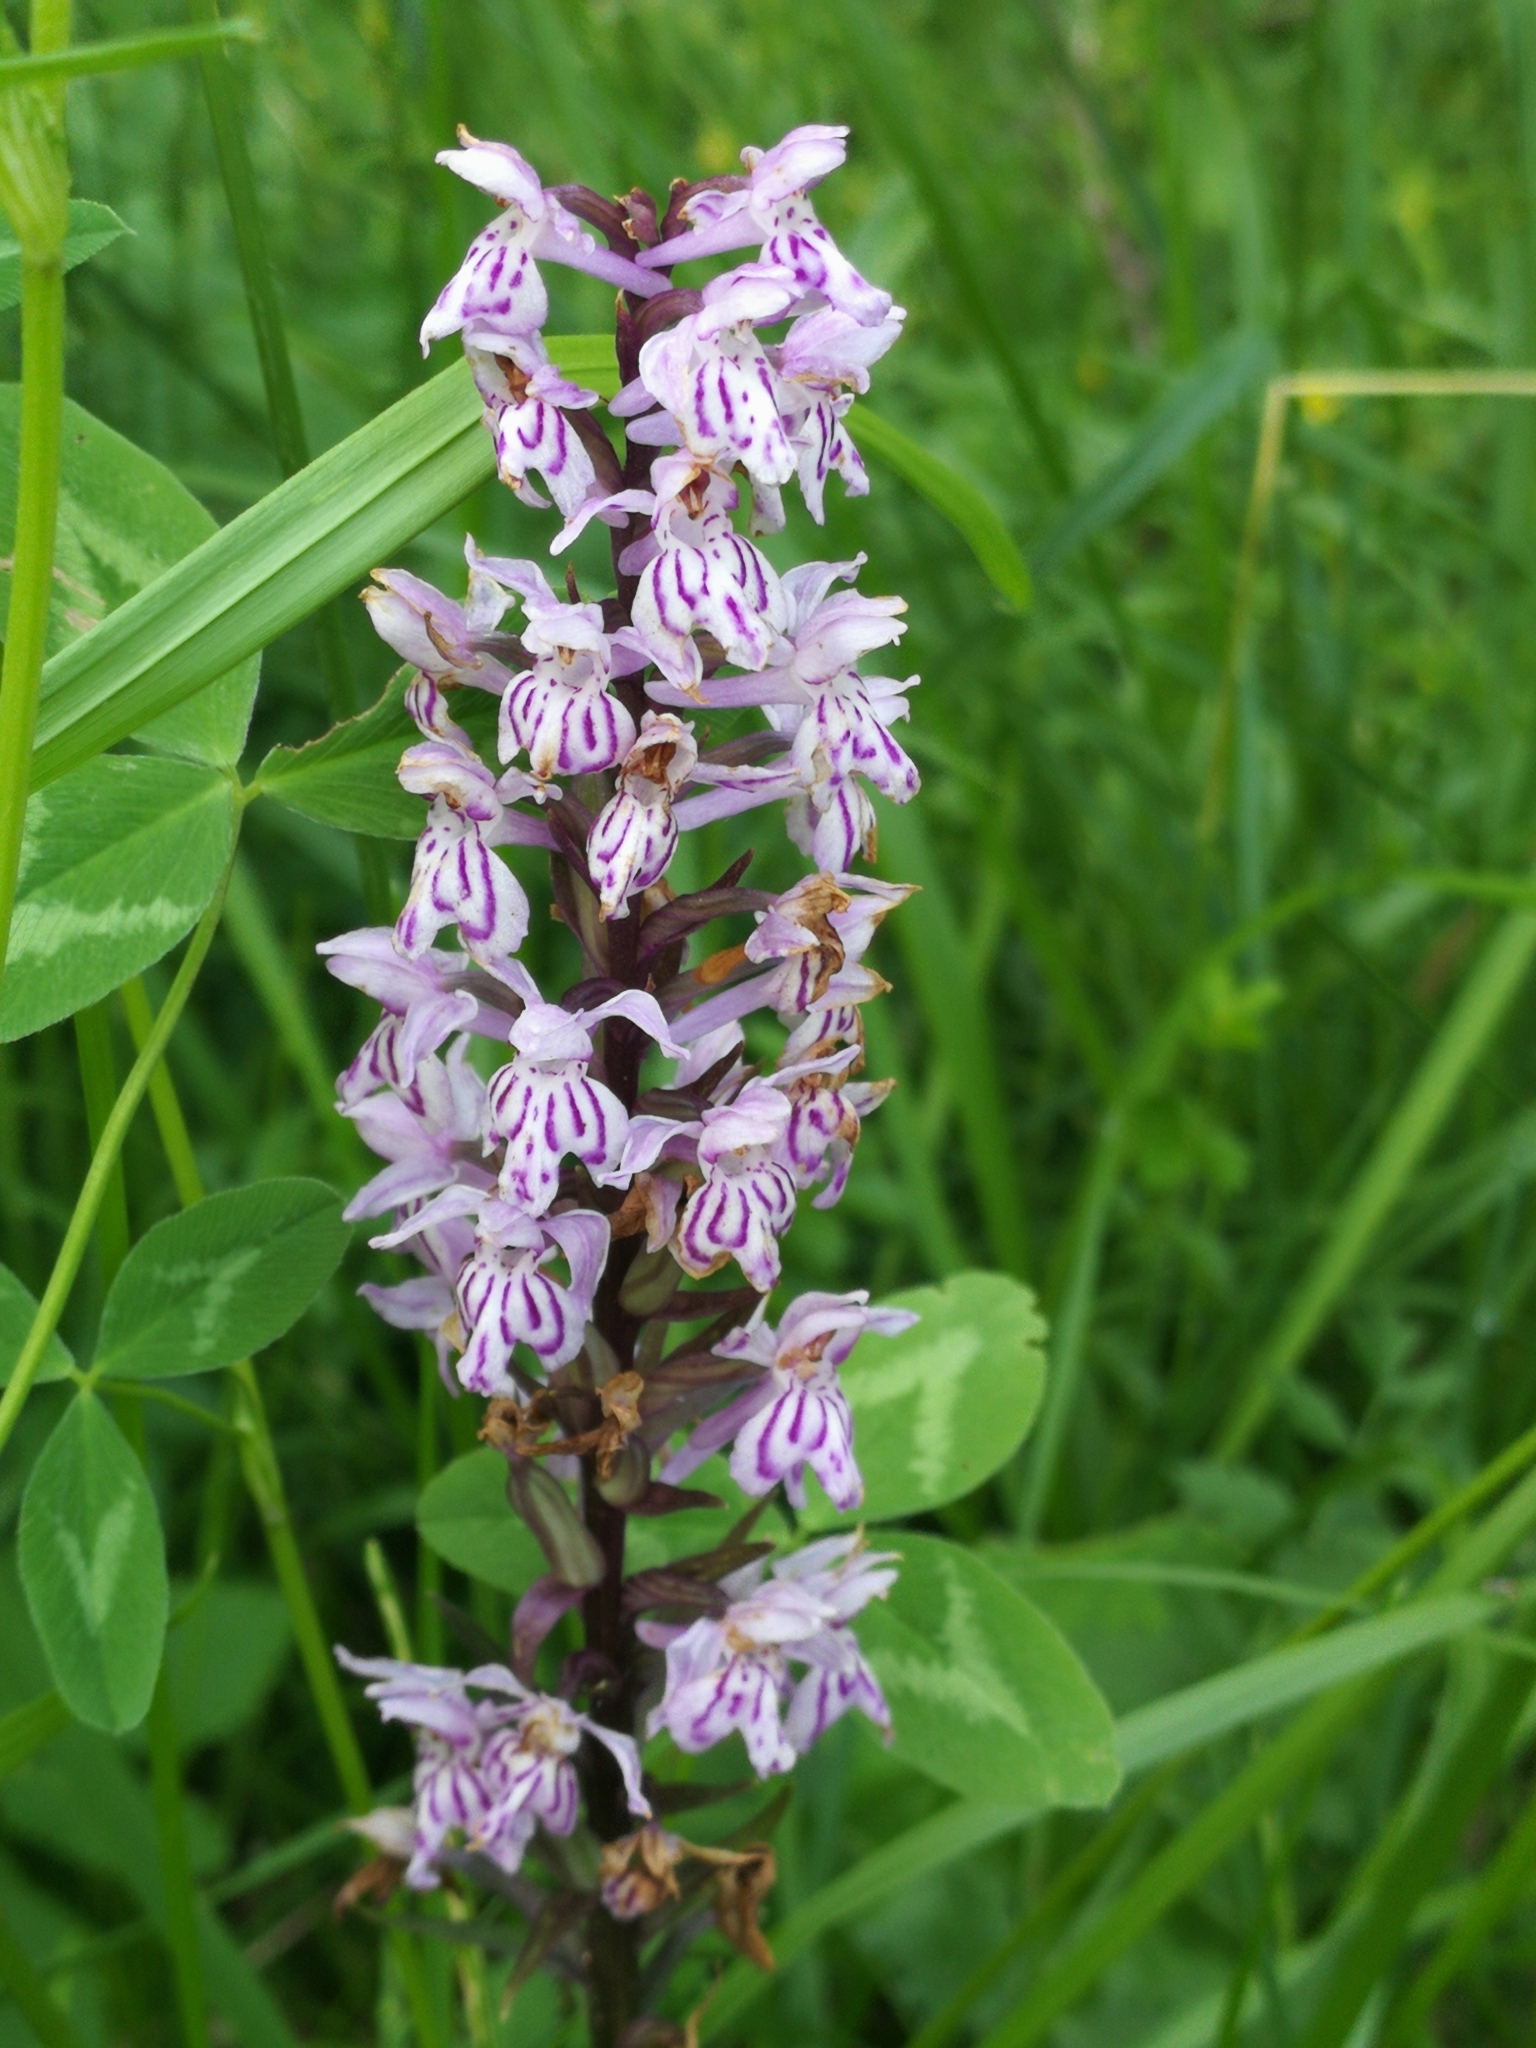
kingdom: Plantae
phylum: Tracheophyta
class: Liliopsida
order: Asparagales
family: Orchidaceae
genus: Dactylorhiza
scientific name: Dactylorhiza maculata
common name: Heath spotted-orchid
